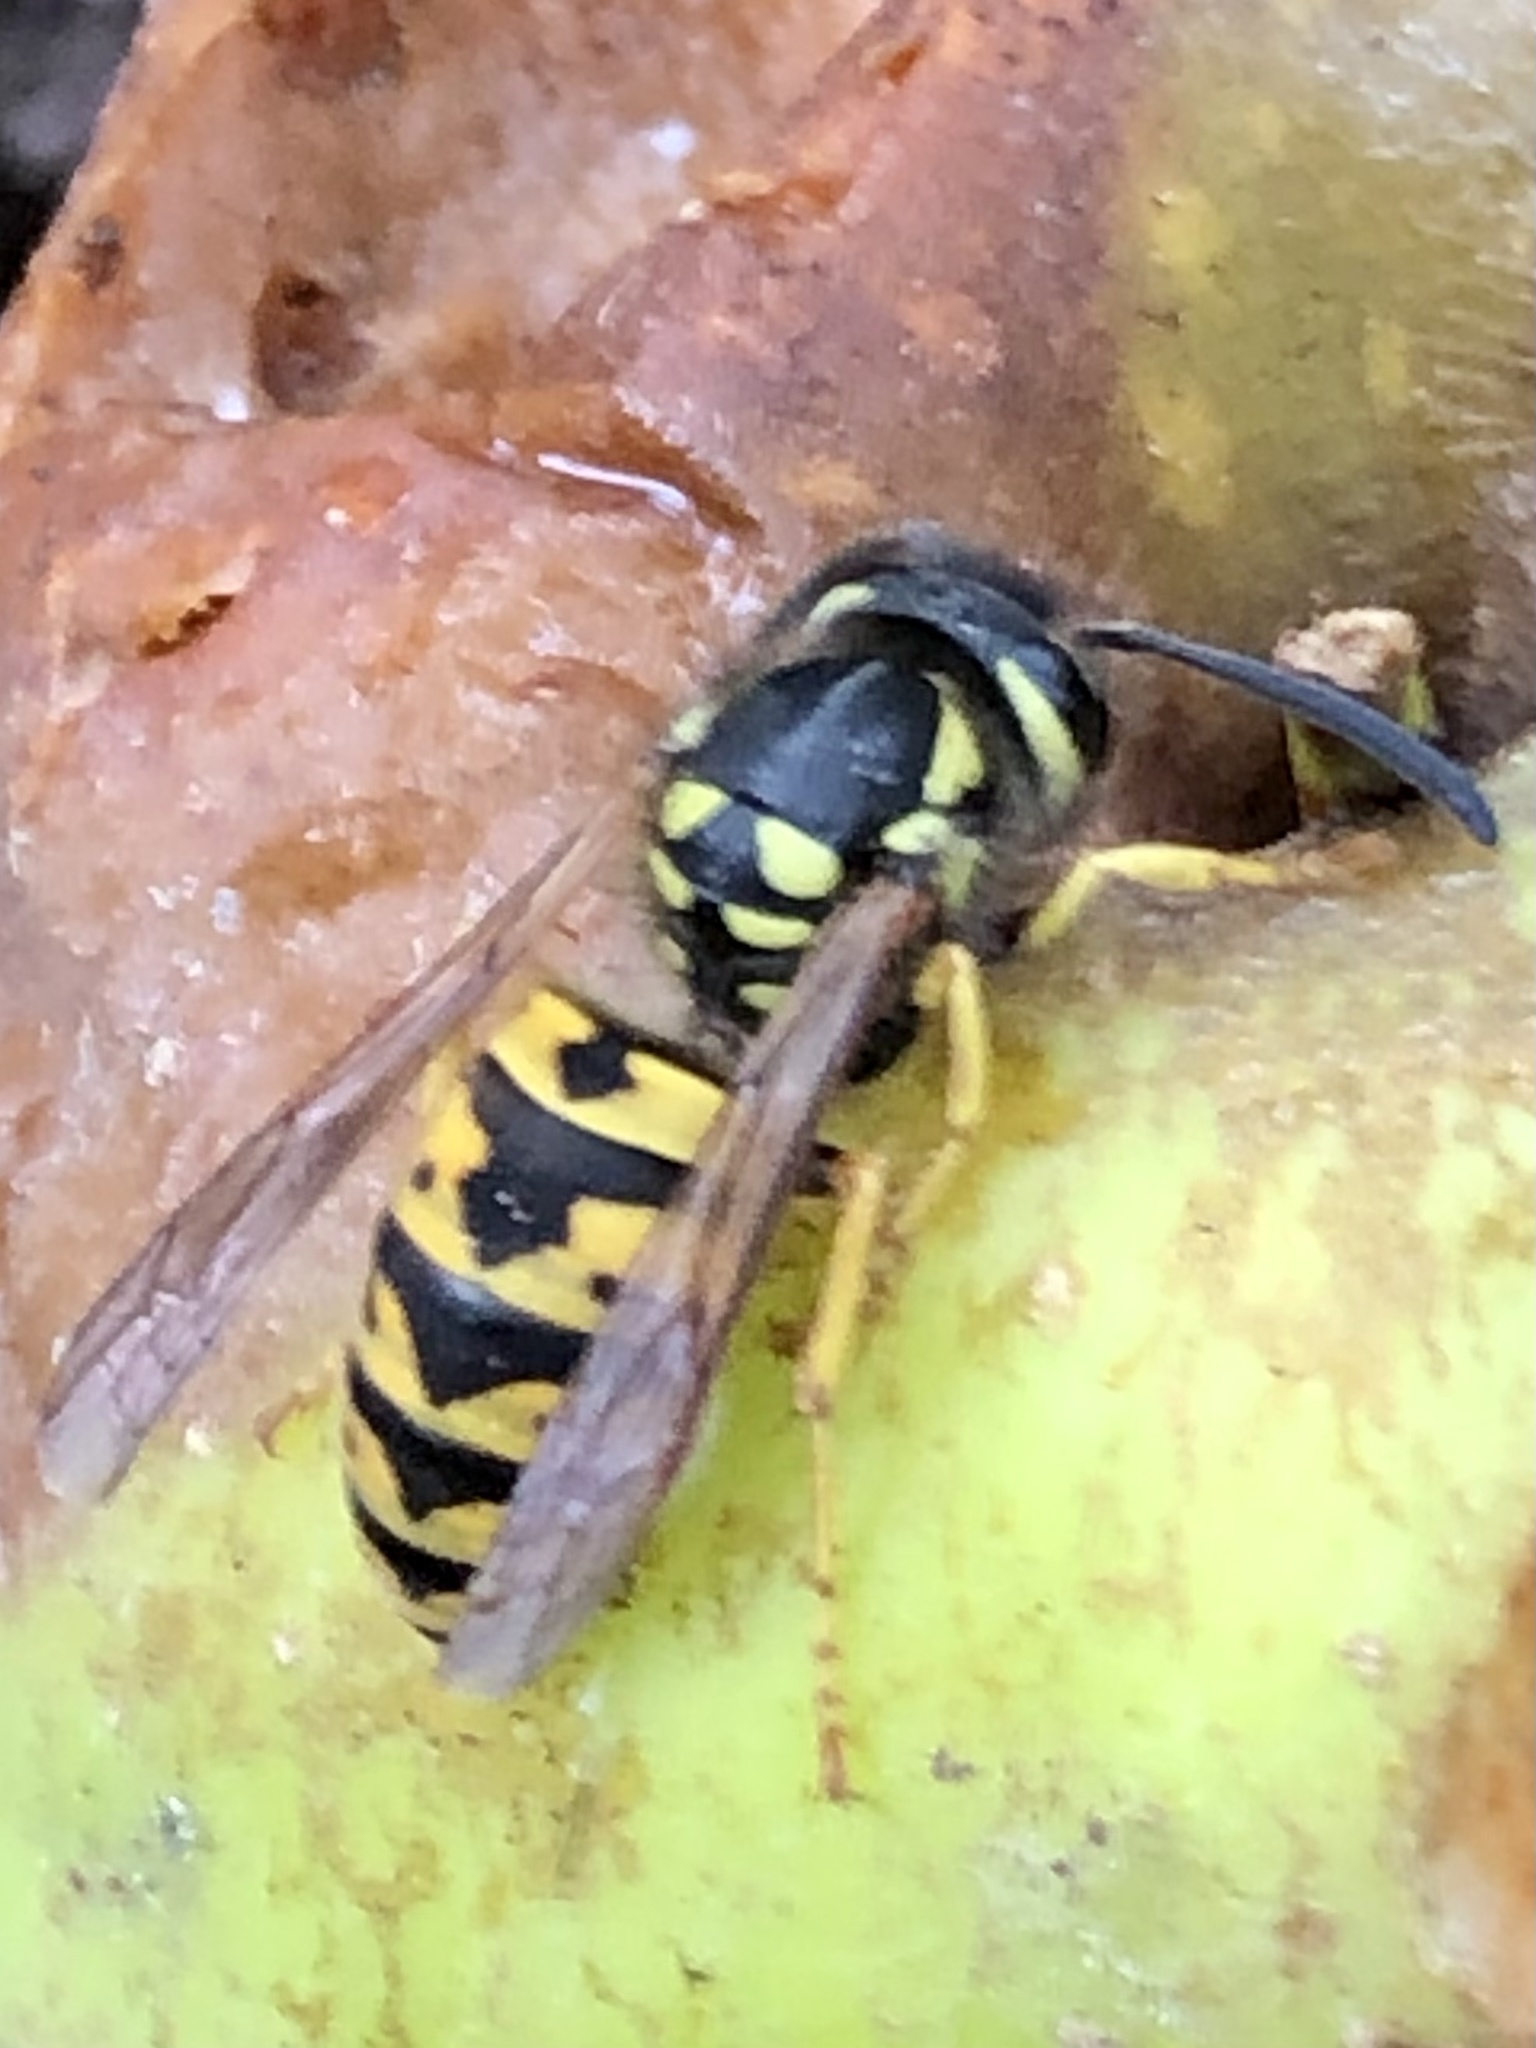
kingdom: Animalia
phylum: Arthropoda
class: Insecta
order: Hymenoptera
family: Vespidae
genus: Vespula
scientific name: Vespula germanica
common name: German wasp
